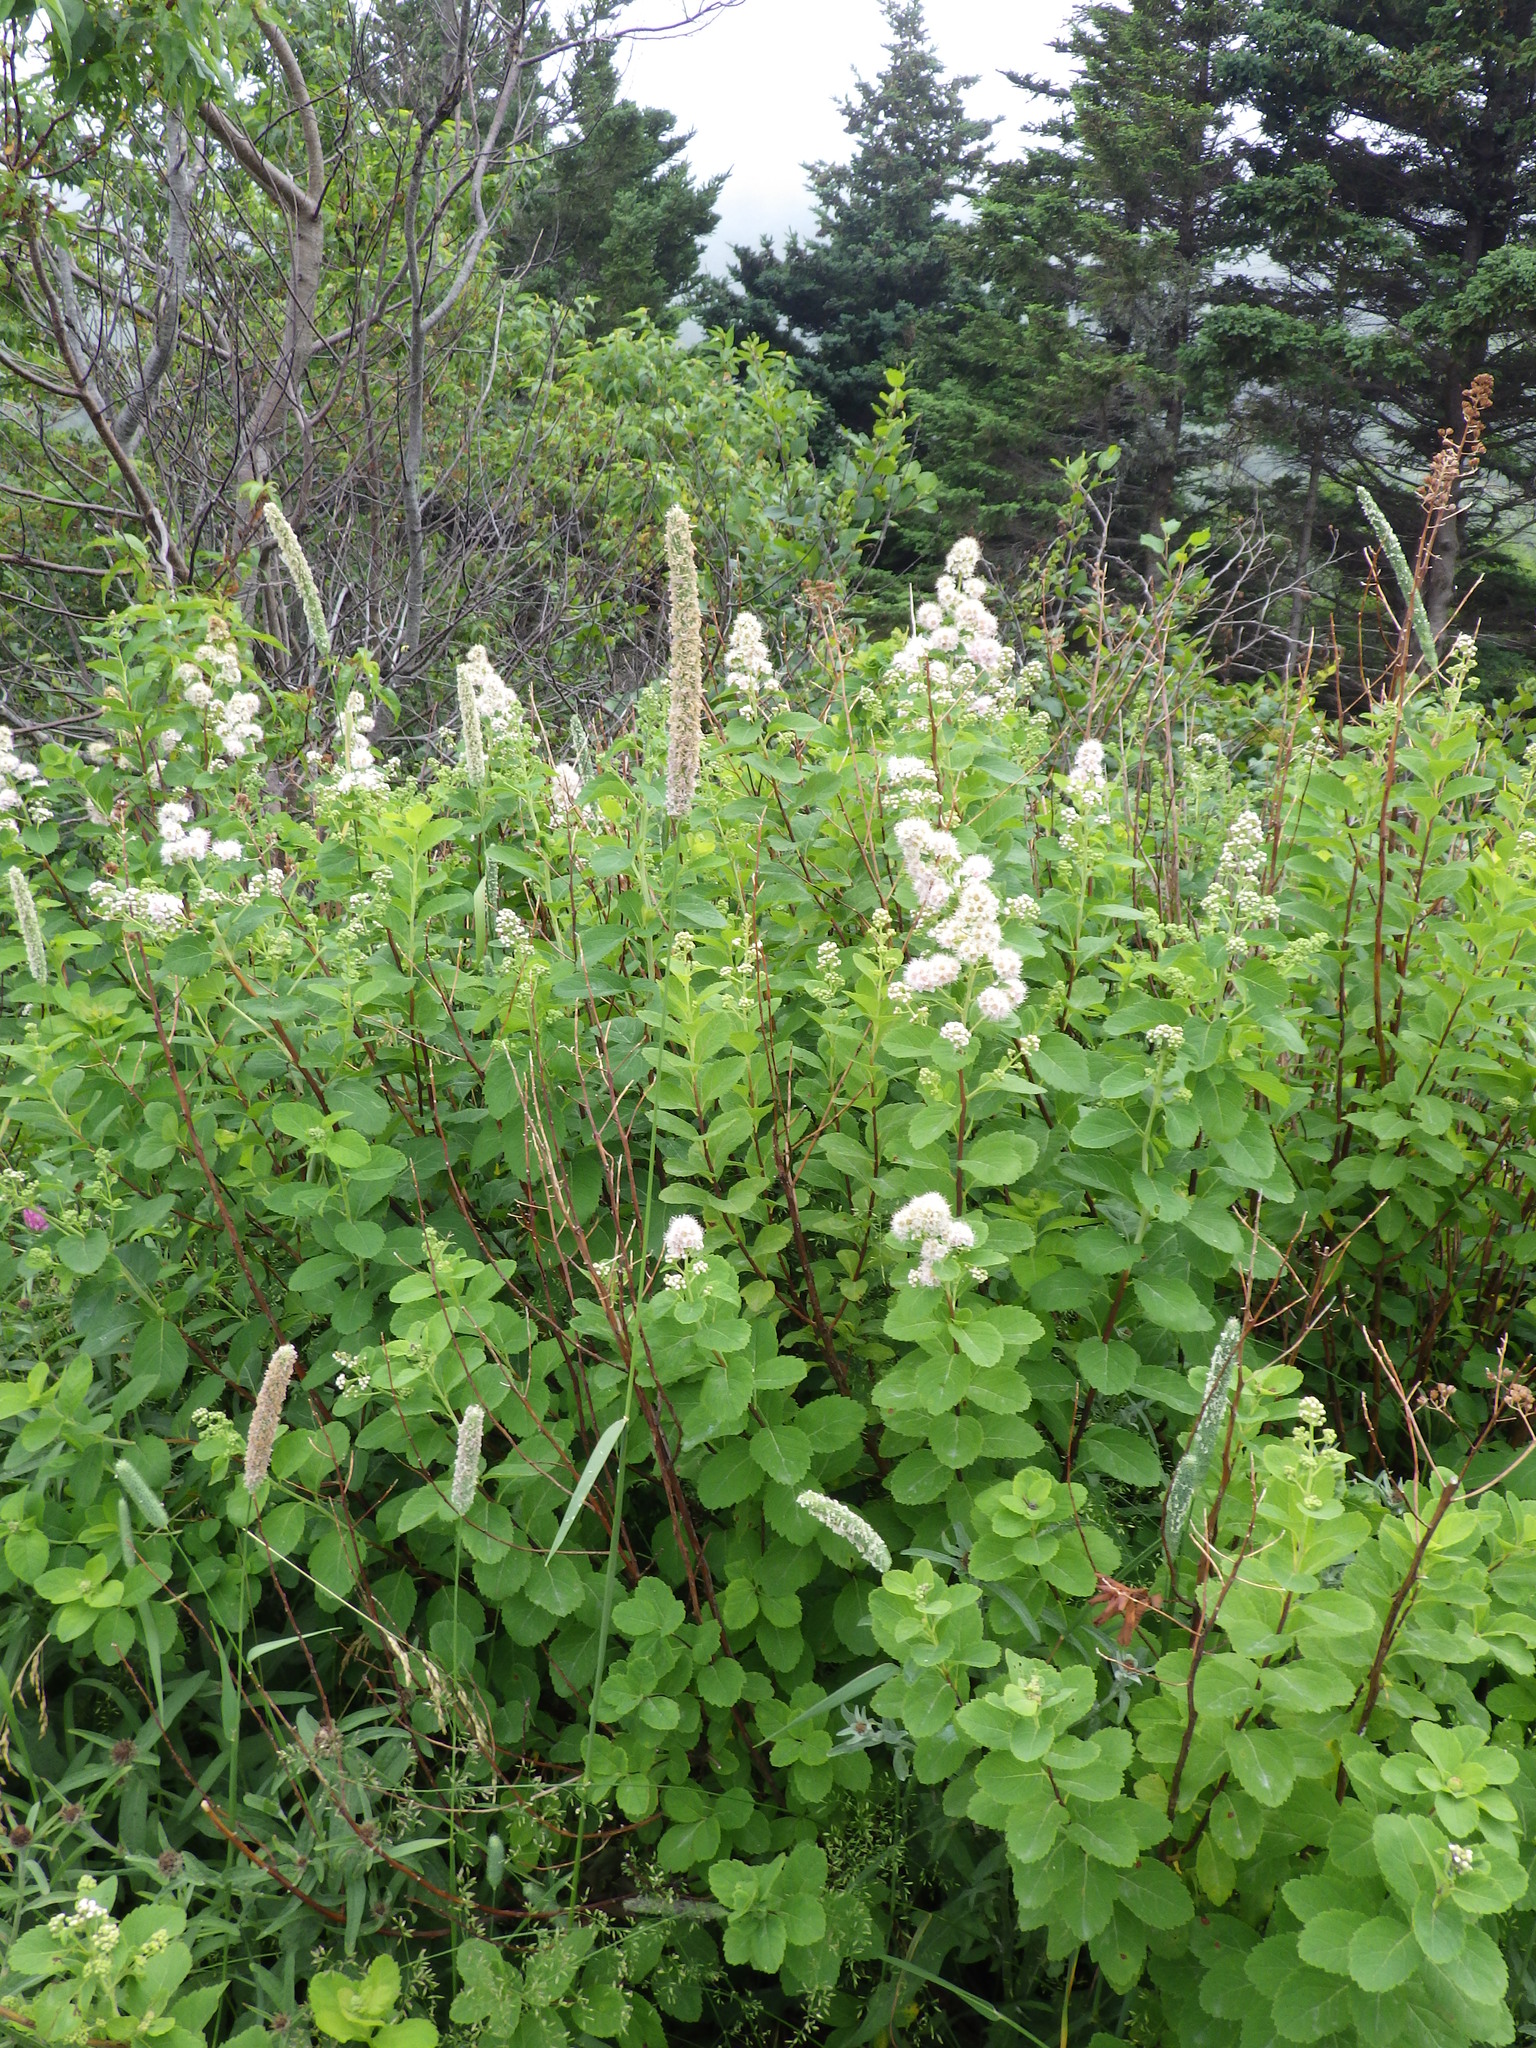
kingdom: Plantae
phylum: Tracheophyta
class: Magnoliopsida
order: Rosales
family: Rosaceae
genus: Spiraea
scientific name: Spiraea alba
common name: Pale bridewort
